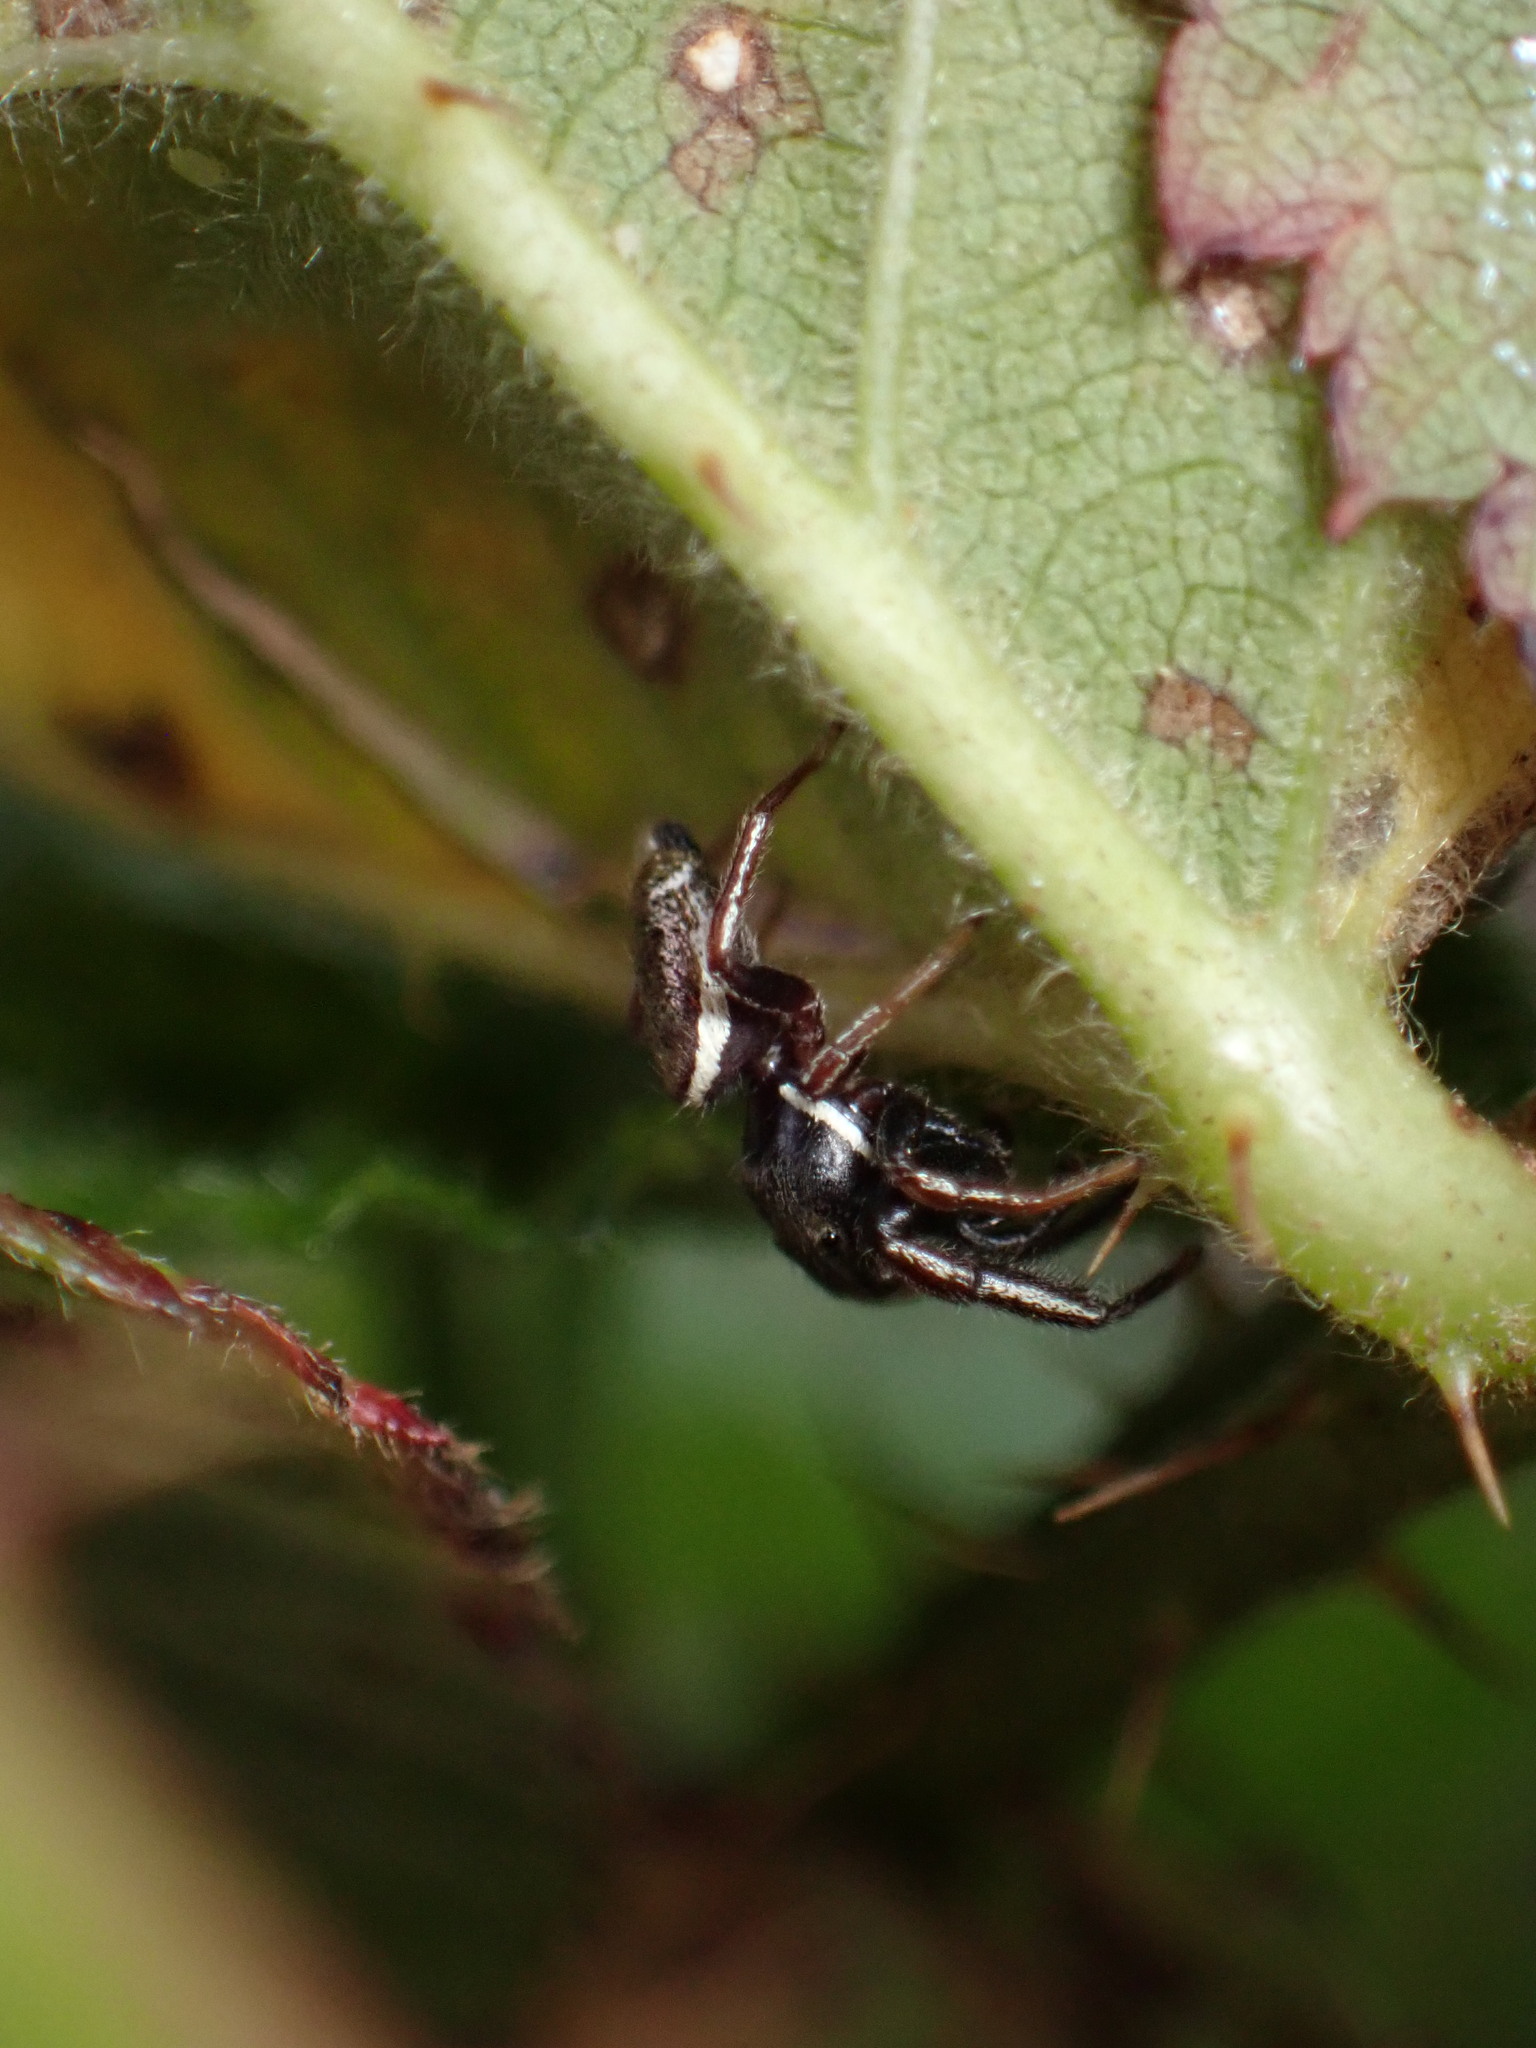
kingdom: Animalia
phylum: Arthropoda
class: Arachnida
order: Araneae
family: Salticidae
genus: Sassacus
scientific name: Sassacus vitis
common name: Jumping spiders
